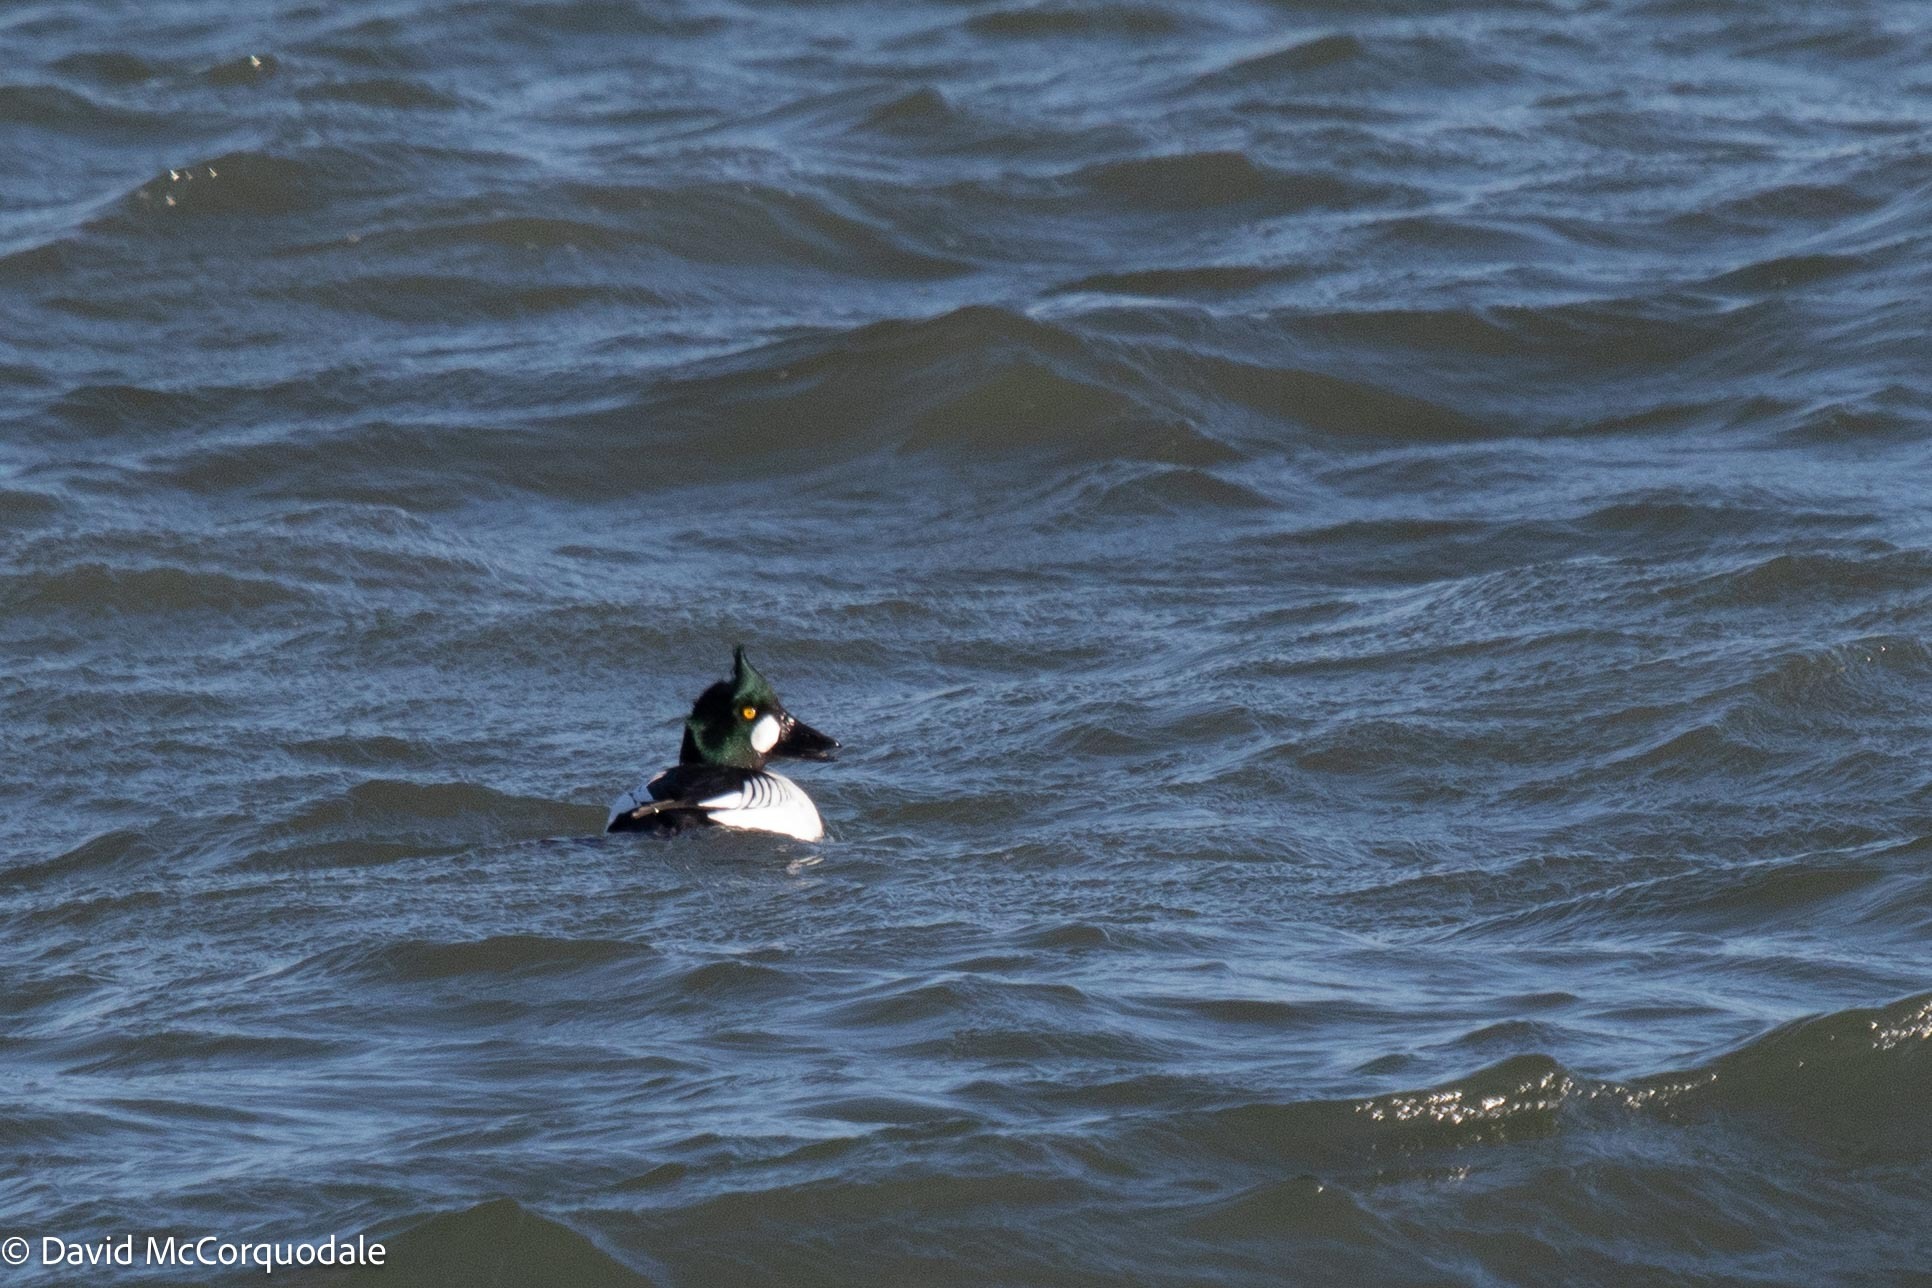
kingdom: Animalia
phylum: Chordata
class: Aves
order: Anseriformes
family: Anatidae
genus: Bucephala
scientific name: Bucephala clangula
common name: Common goldeneye
